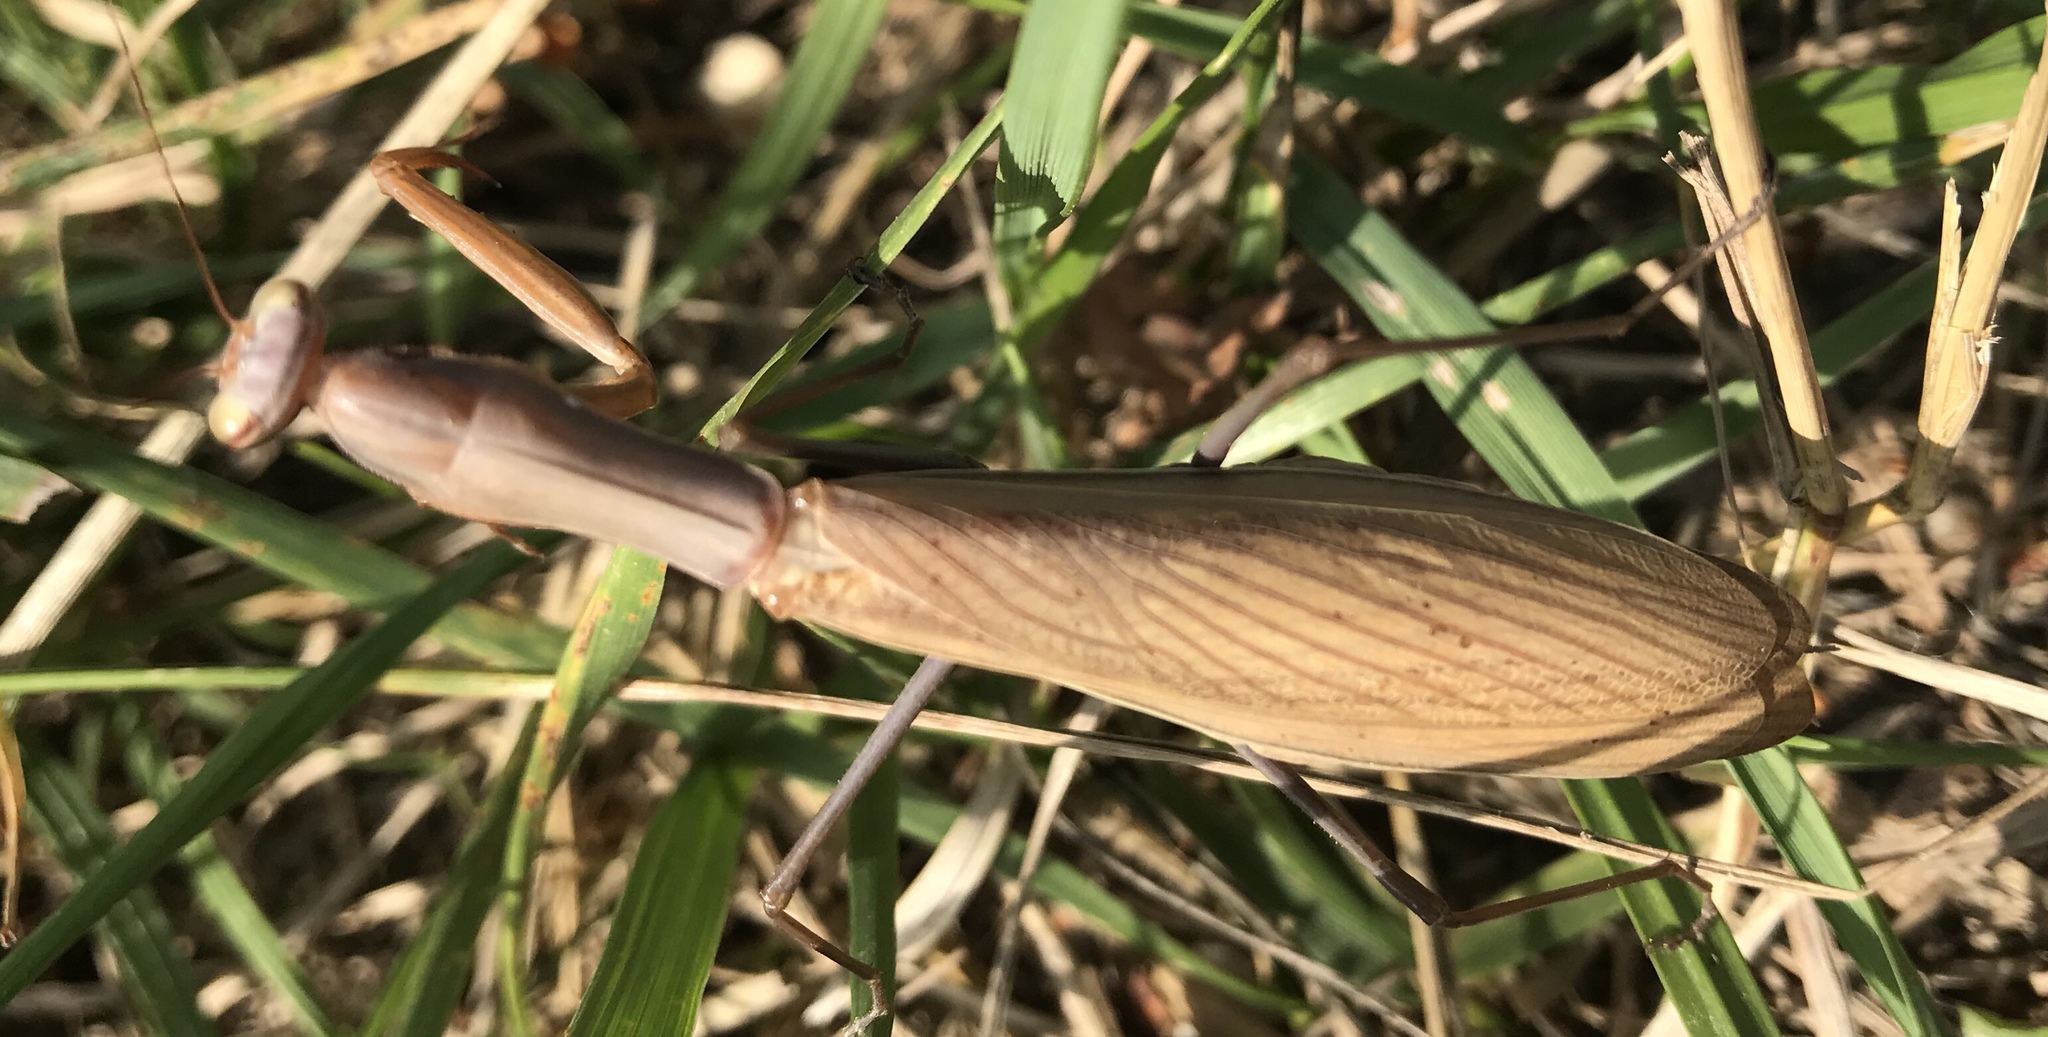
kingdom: Animalia
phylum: Arthropoda
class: Insecta
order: Mantodea
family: Mantidae
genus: Mantis
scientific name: Mantis religiosa
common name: Praying mantis
